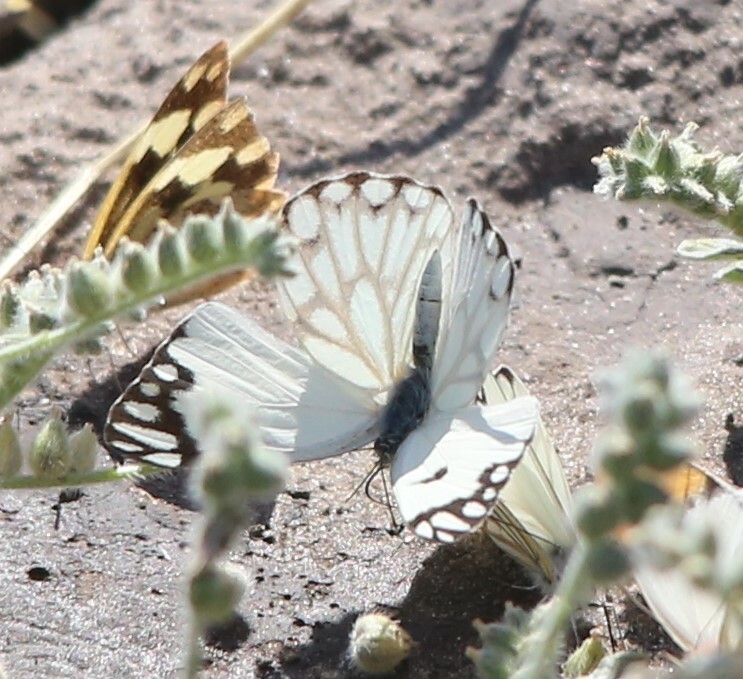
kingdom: Animalia
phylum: Arthropoda
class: Insecta
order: Lepidoptera
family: Pieridae
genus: Belenois
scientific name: Belenois aurota
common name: Brown-veined white
